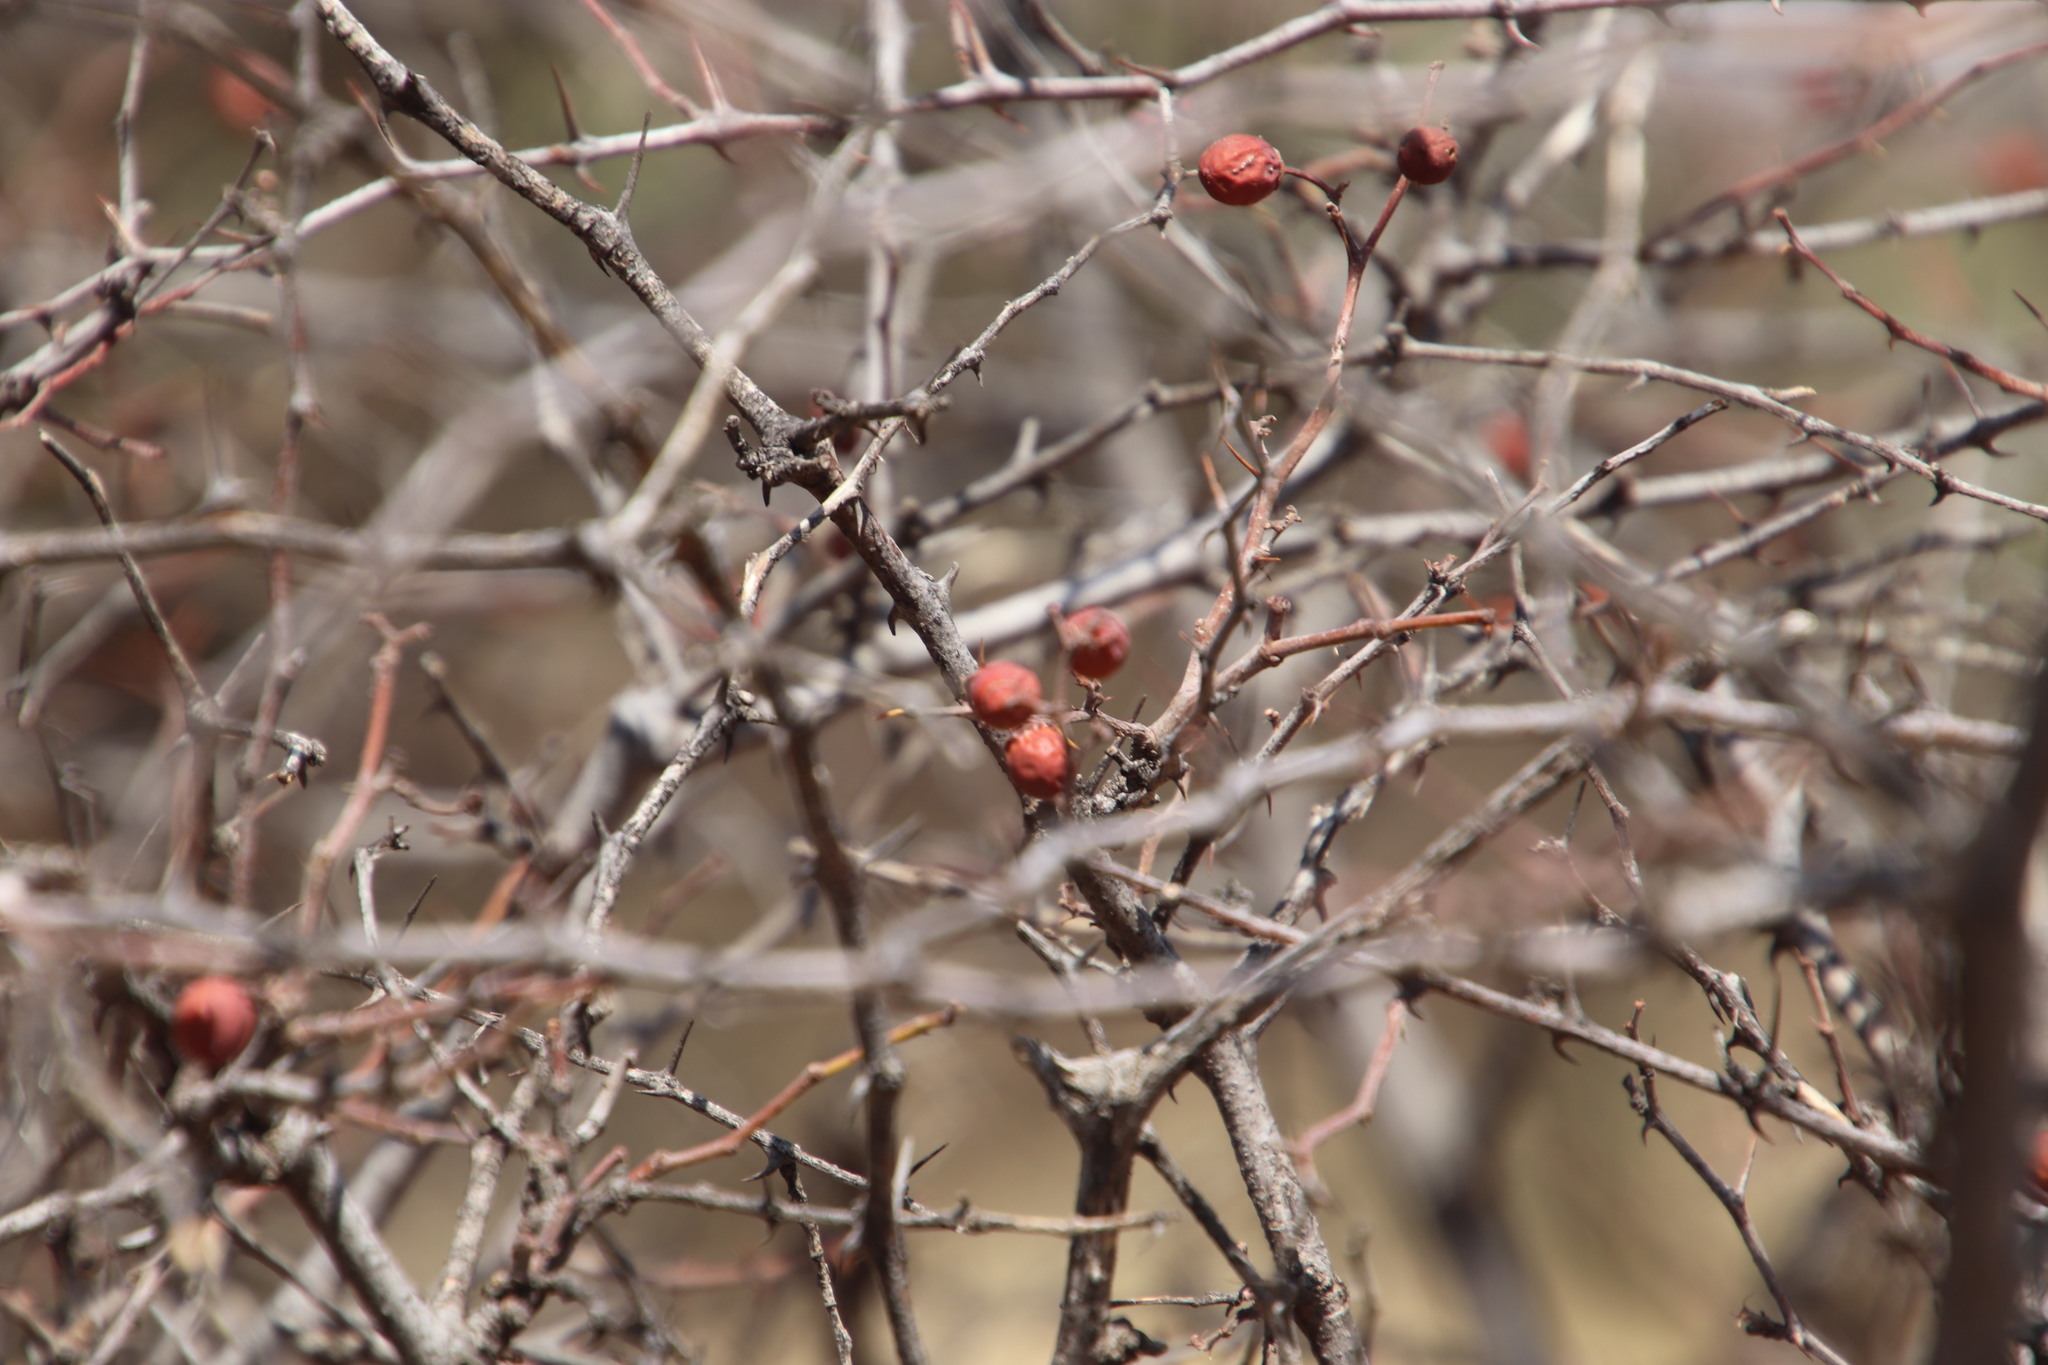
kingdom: Plantae
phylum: Tracheophyta
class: Magnoliopsida
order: Rosales
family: Rhamnaceae
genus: Ziziphus
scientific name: Ziziphus mucronata
